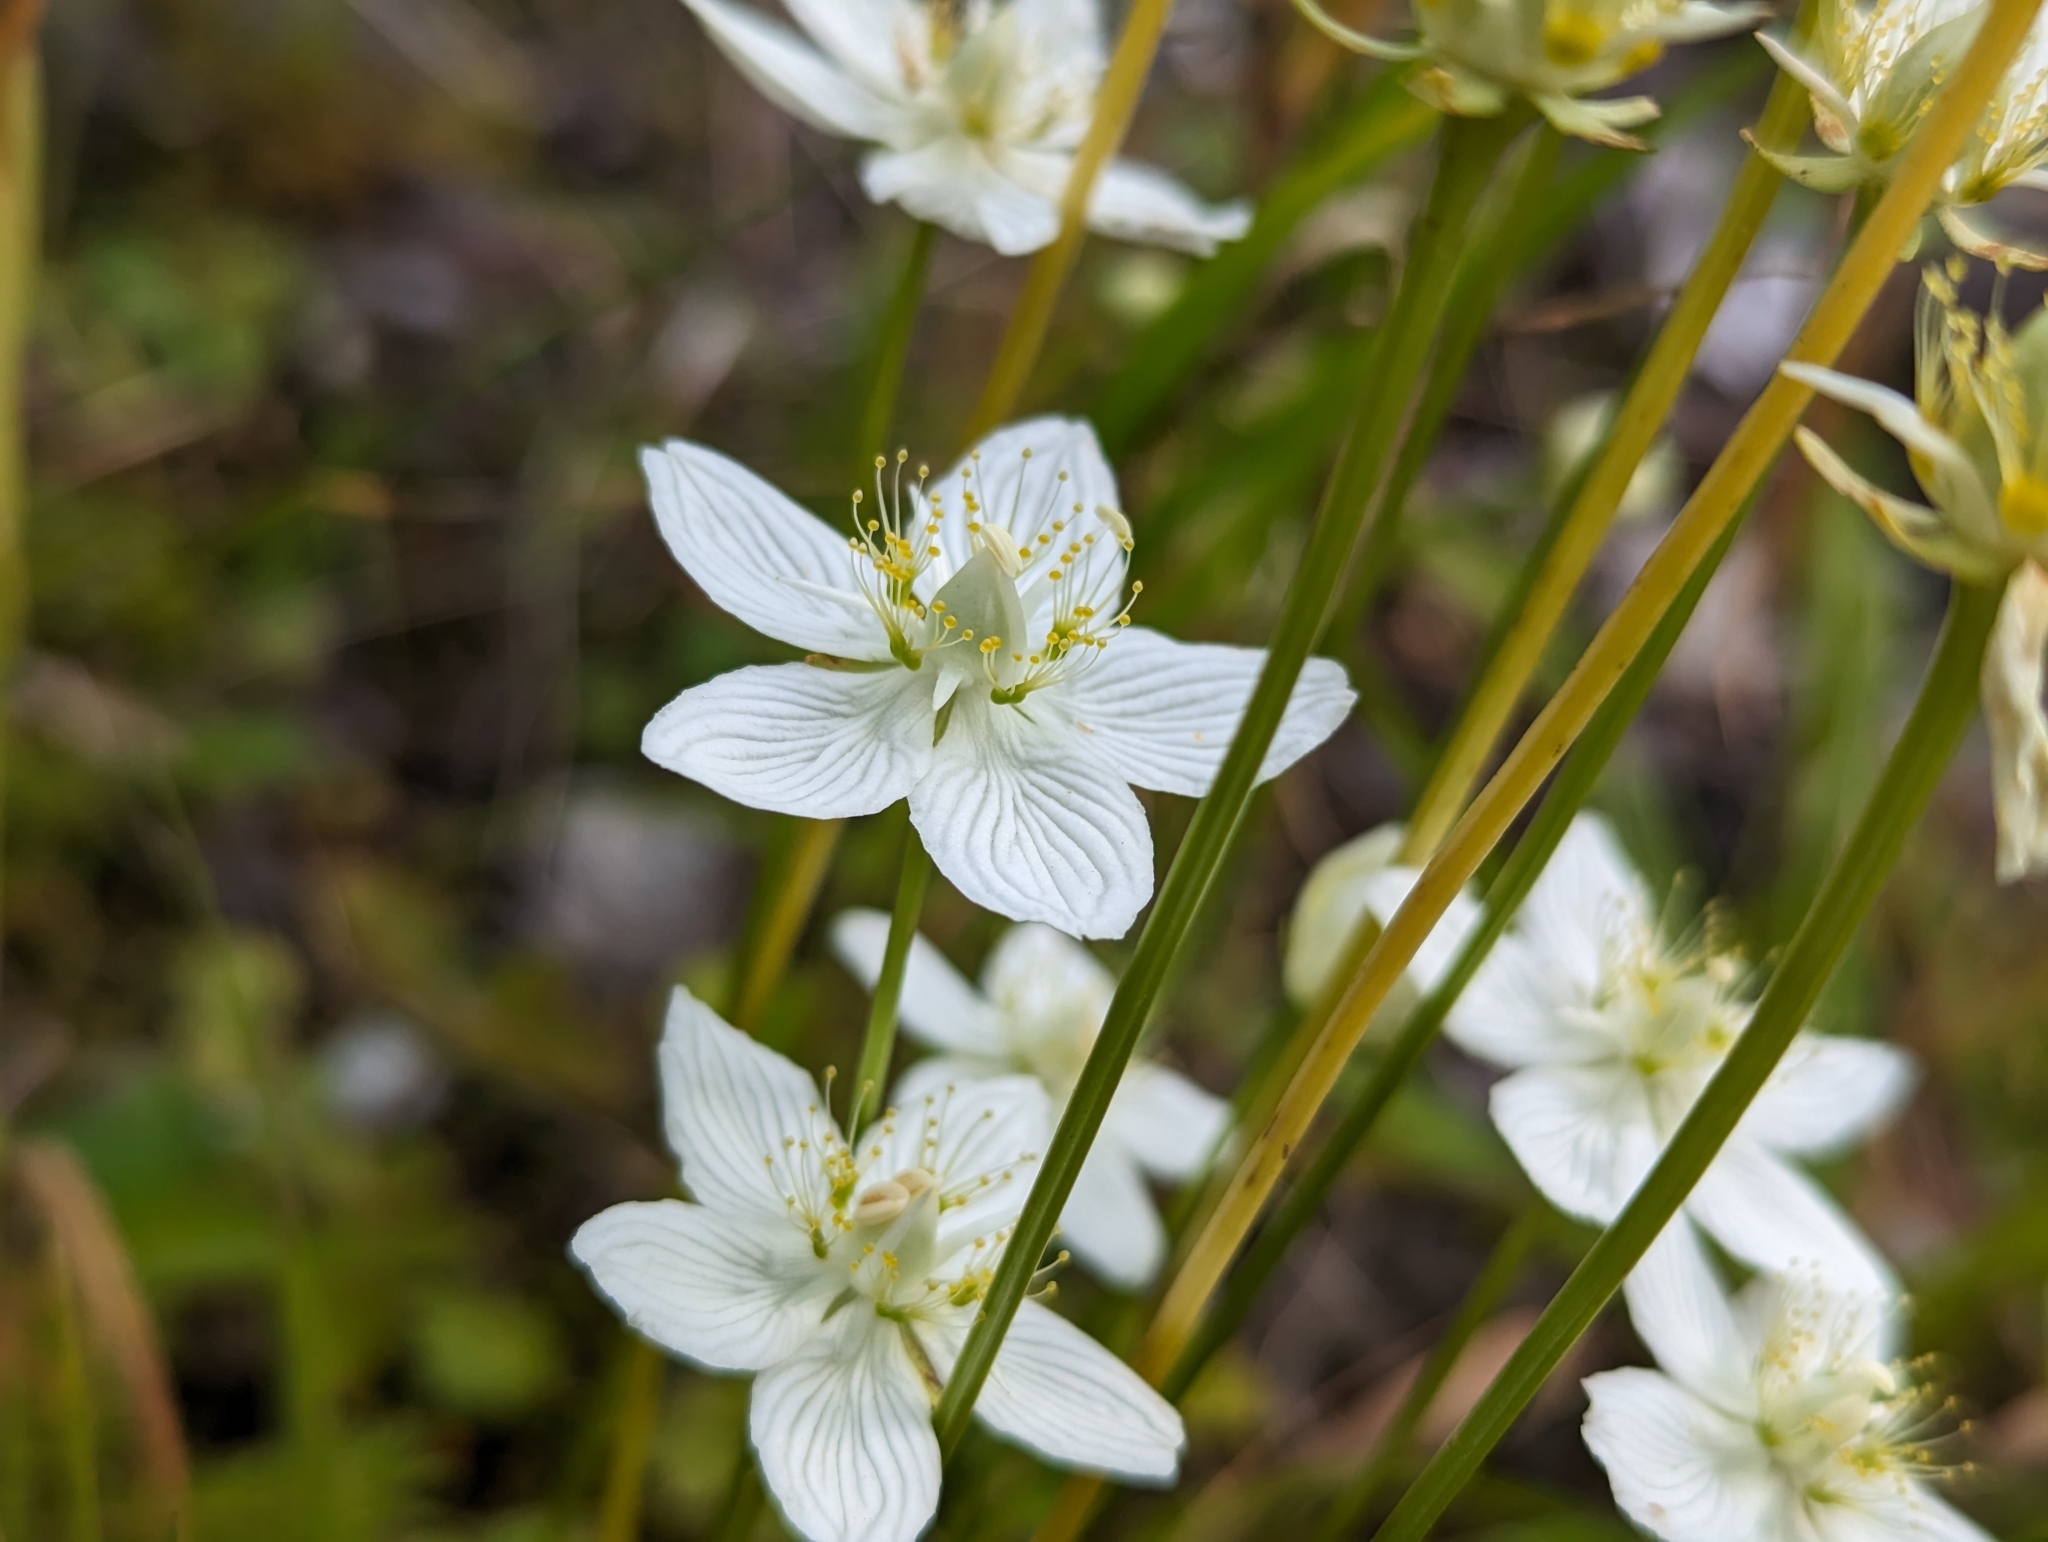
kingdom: Plantae
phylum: Tracheophyta
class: Magnoliopsida
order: Celastrales
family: Parnassiaceae
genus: Parnassia
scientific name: Parnassia palustris
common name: Grass-of-parnassus
